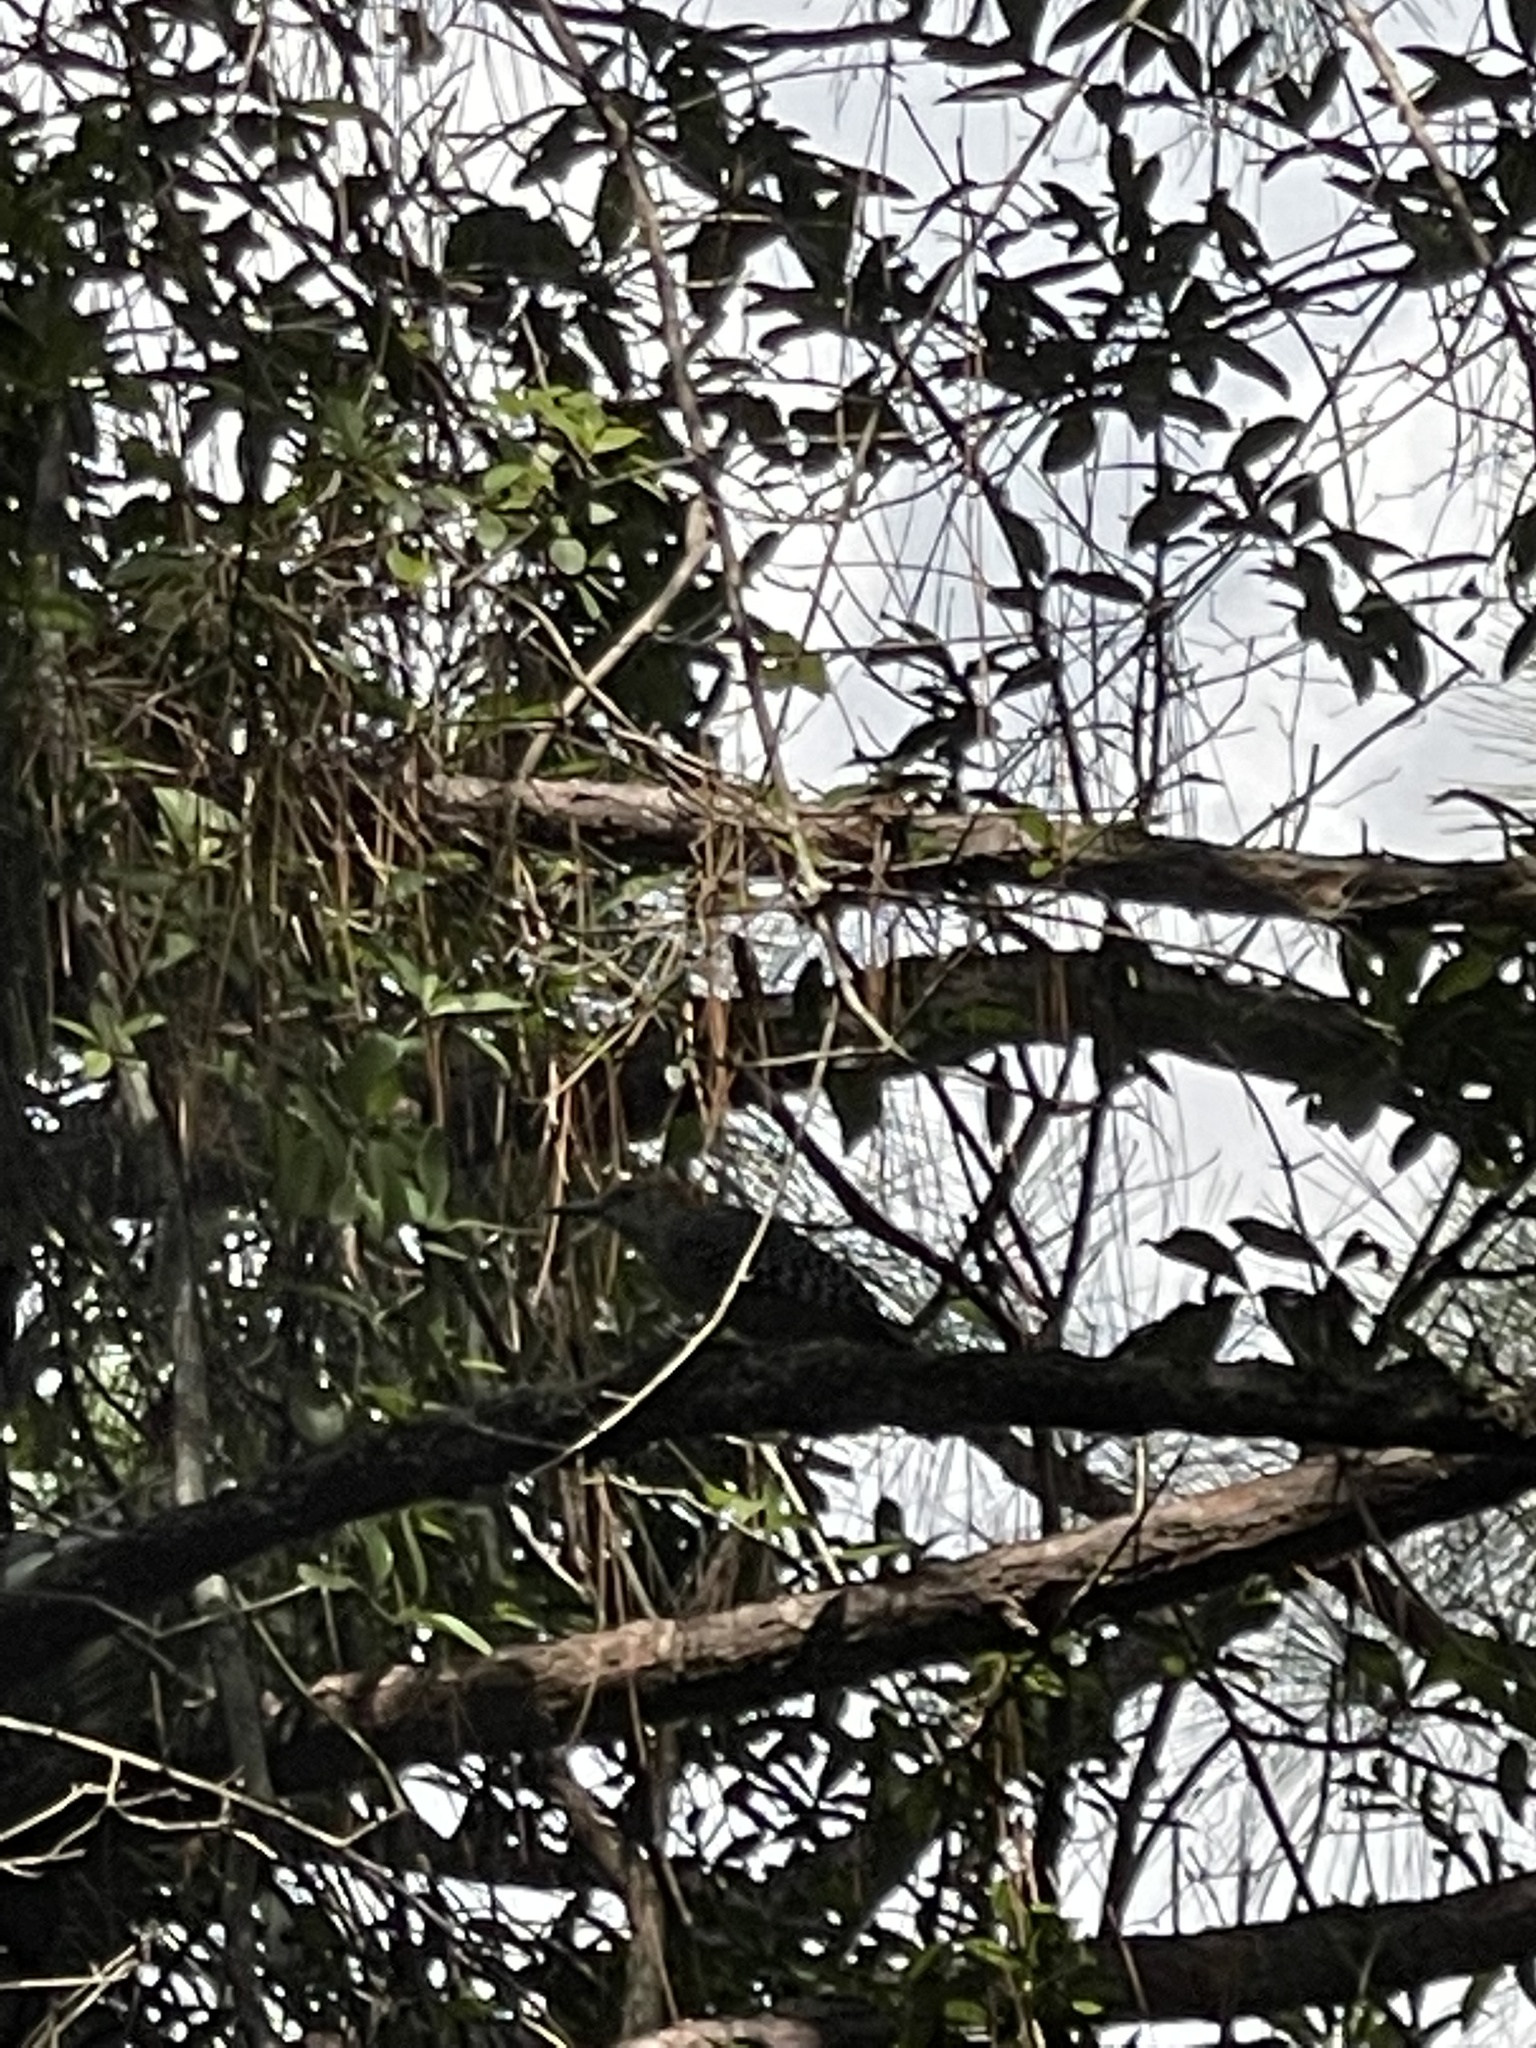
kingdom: Animalia
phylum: Chordata
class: Aves
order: Piciformes
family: Picidae
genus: Melanerpes
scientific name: Melanerpes carolinus
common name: Red-bellied woodpecker
